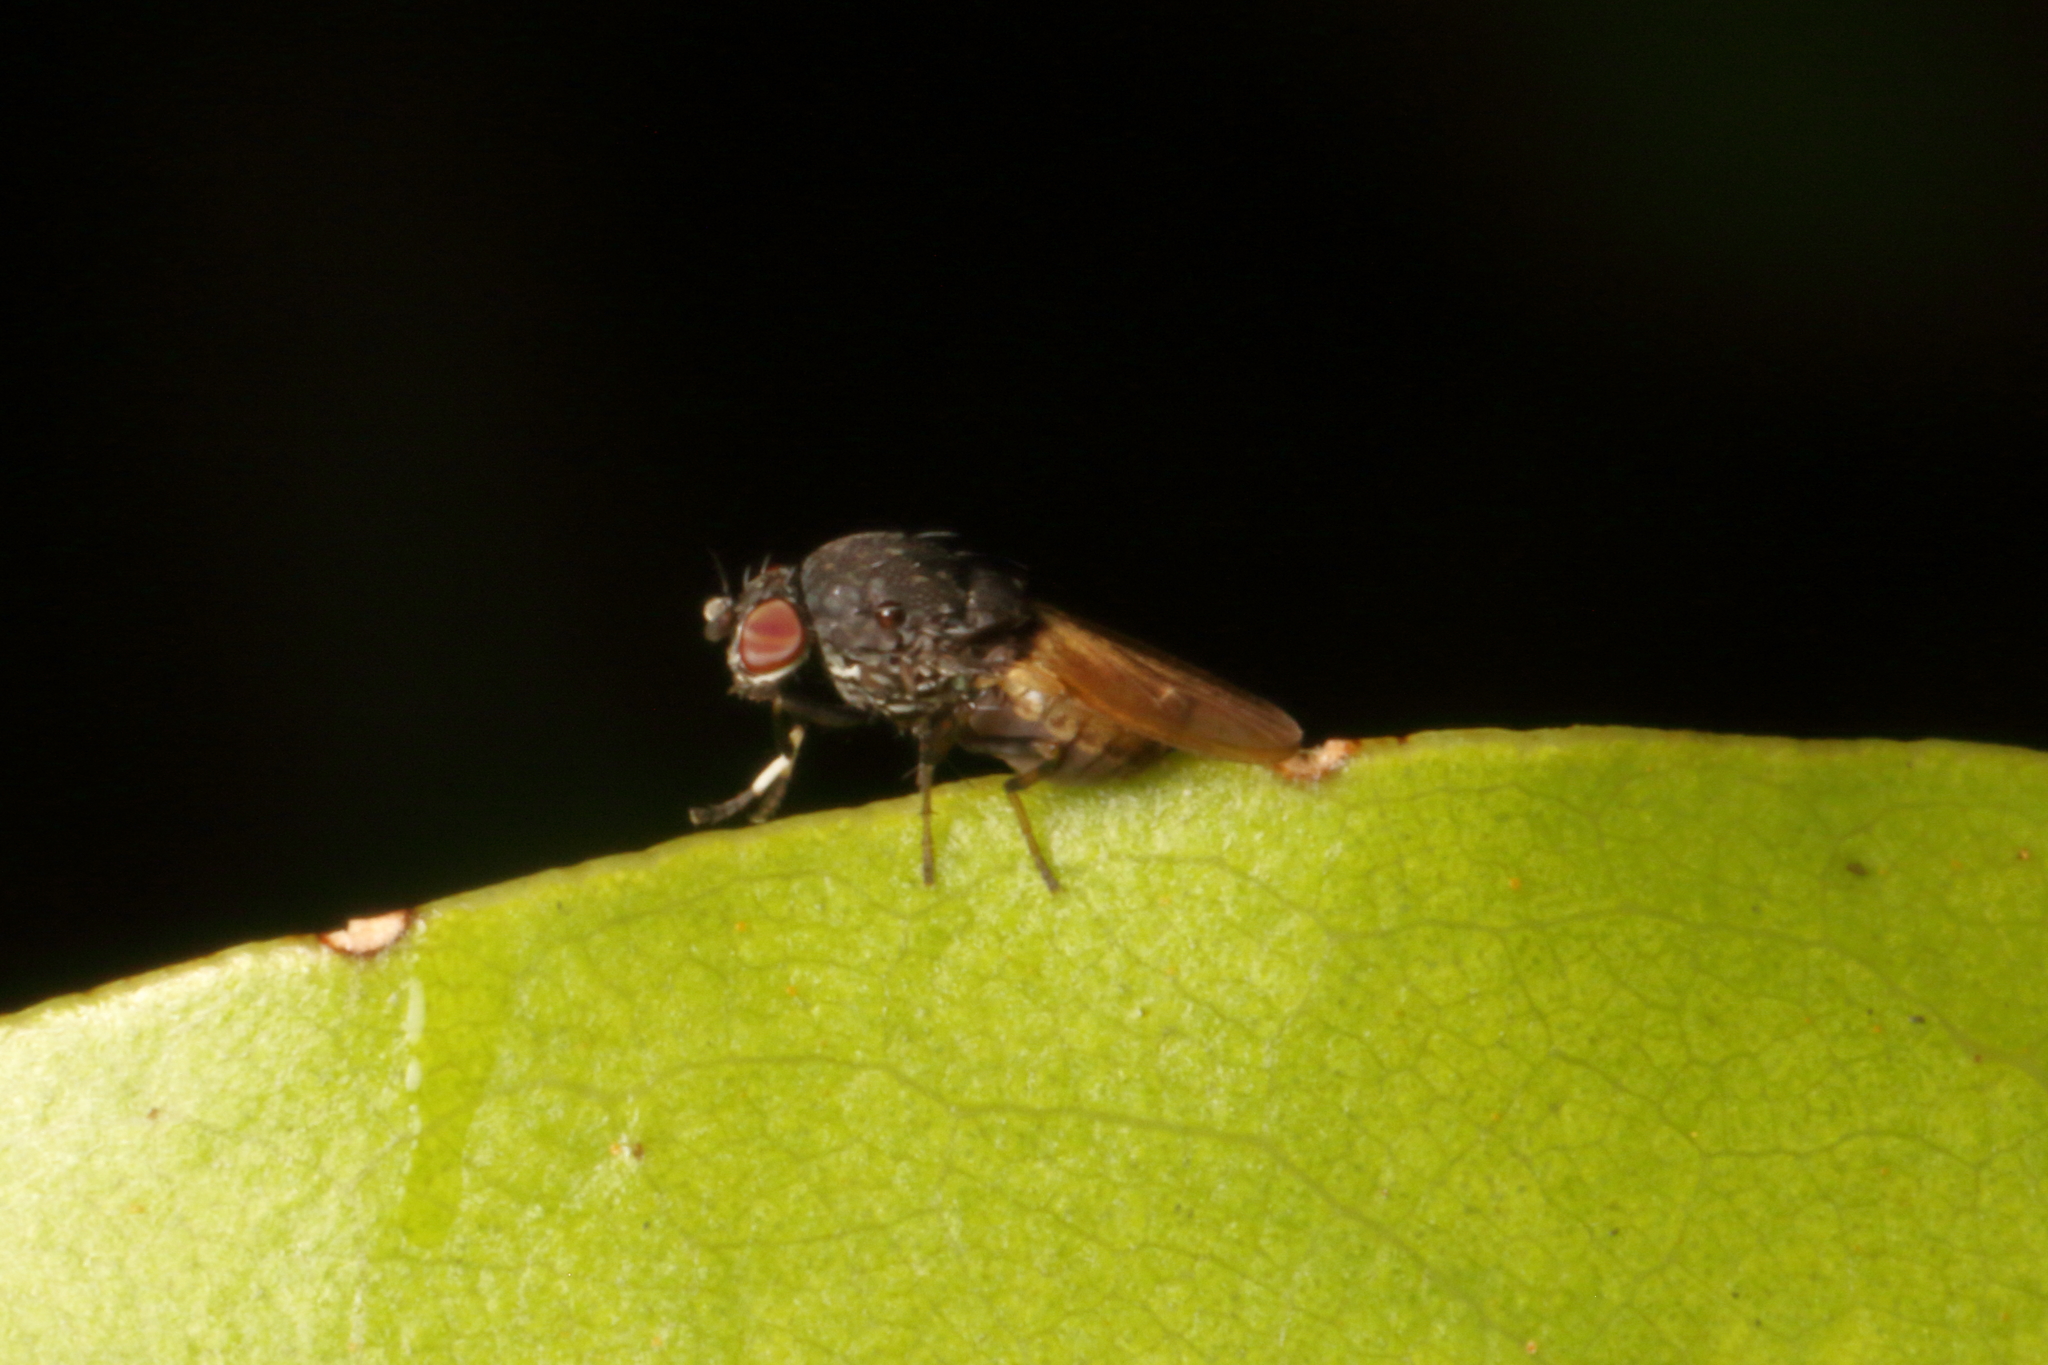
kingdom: Animalia
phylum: Arthropoda
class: Insecta
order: Diptera
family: Heleomyzidae
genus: Allophylina
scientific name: Allophylina albitarsis
